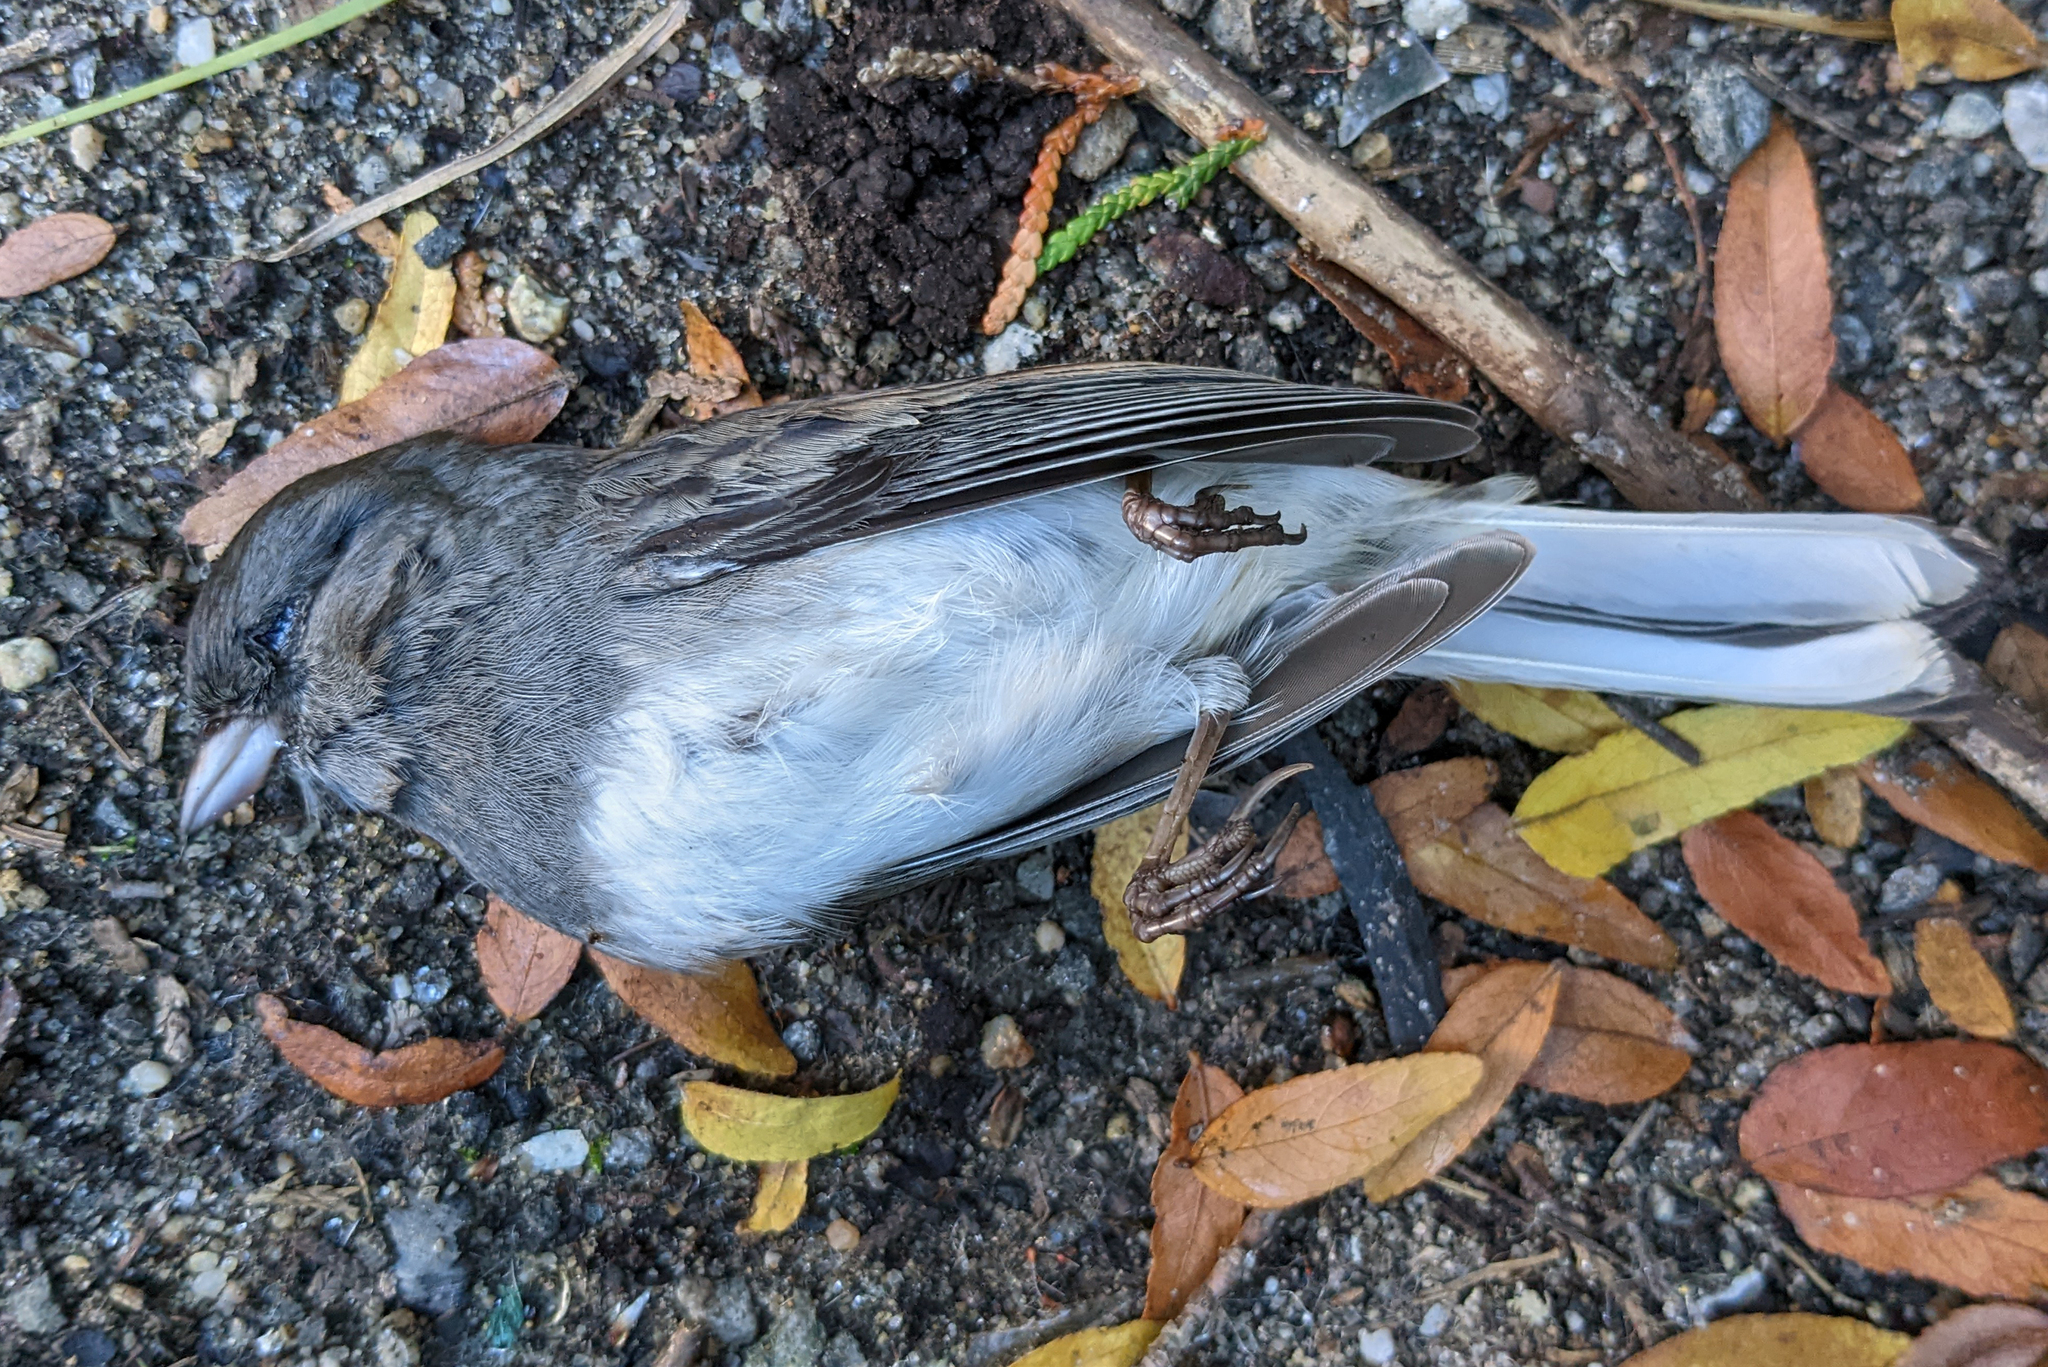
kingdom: Animalia
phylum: Chordata
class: Aves
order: Passeriformes
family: Passerellidae
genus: Junco
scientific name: Junco hyemalis
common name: Dark-eyed junco
